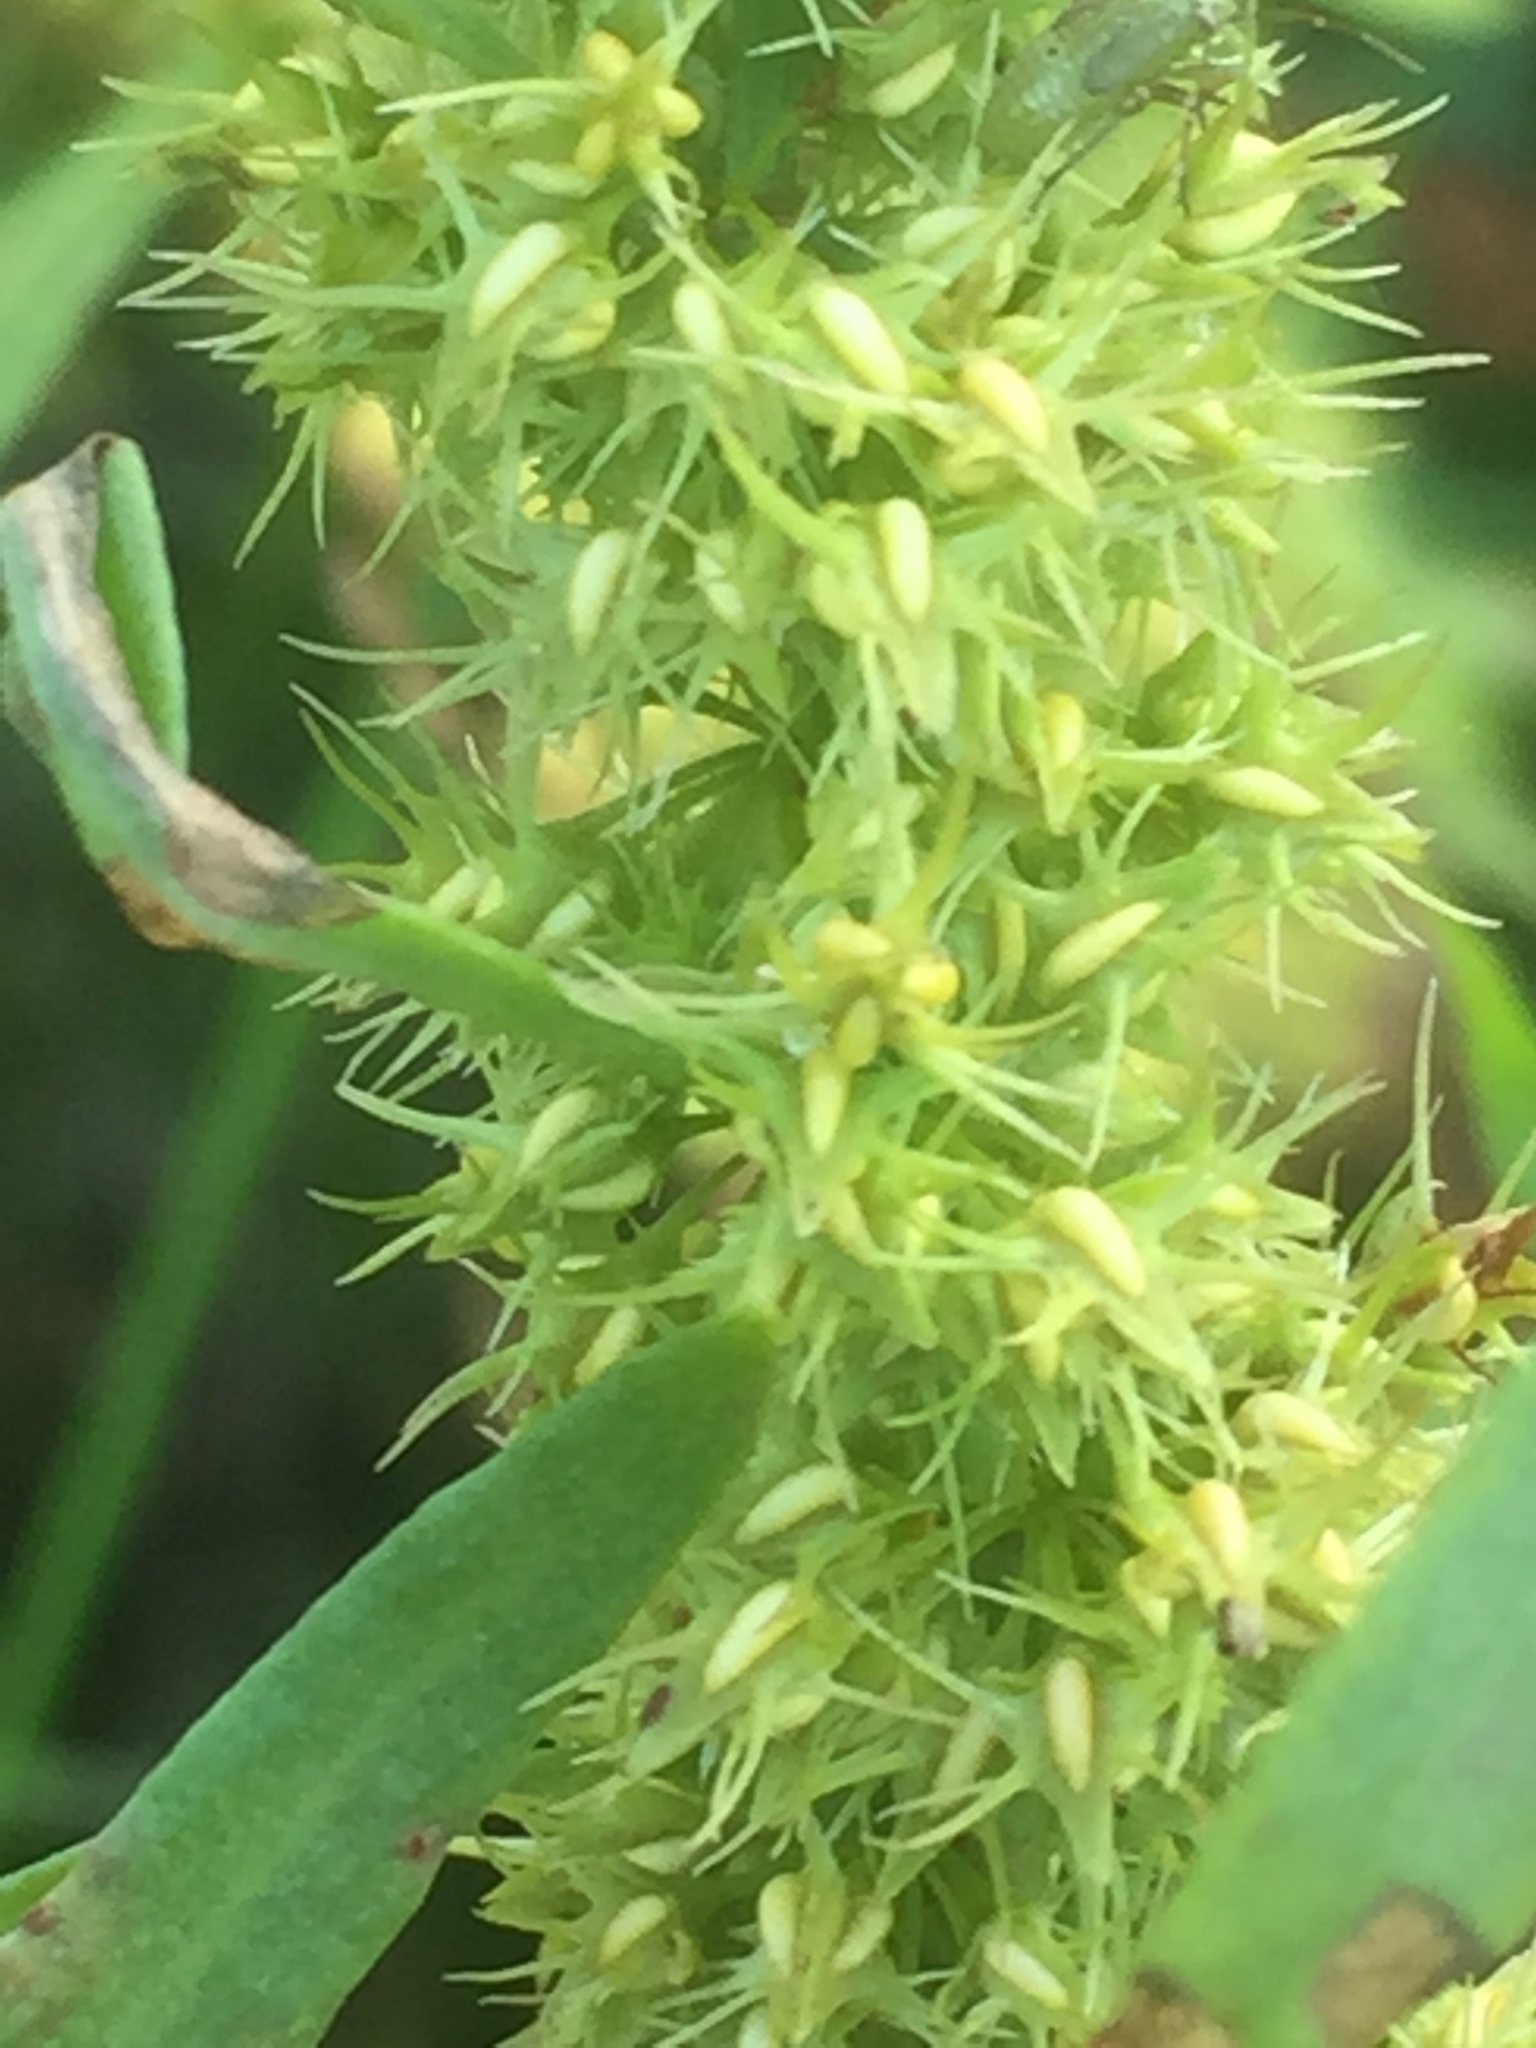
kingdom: Plantae
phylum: Tracheophyta
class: Magnoliopsida
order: Caryophyllales
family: Polygonaceae
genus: Rumex
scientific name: Rumex maritimus
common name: Golden dock
